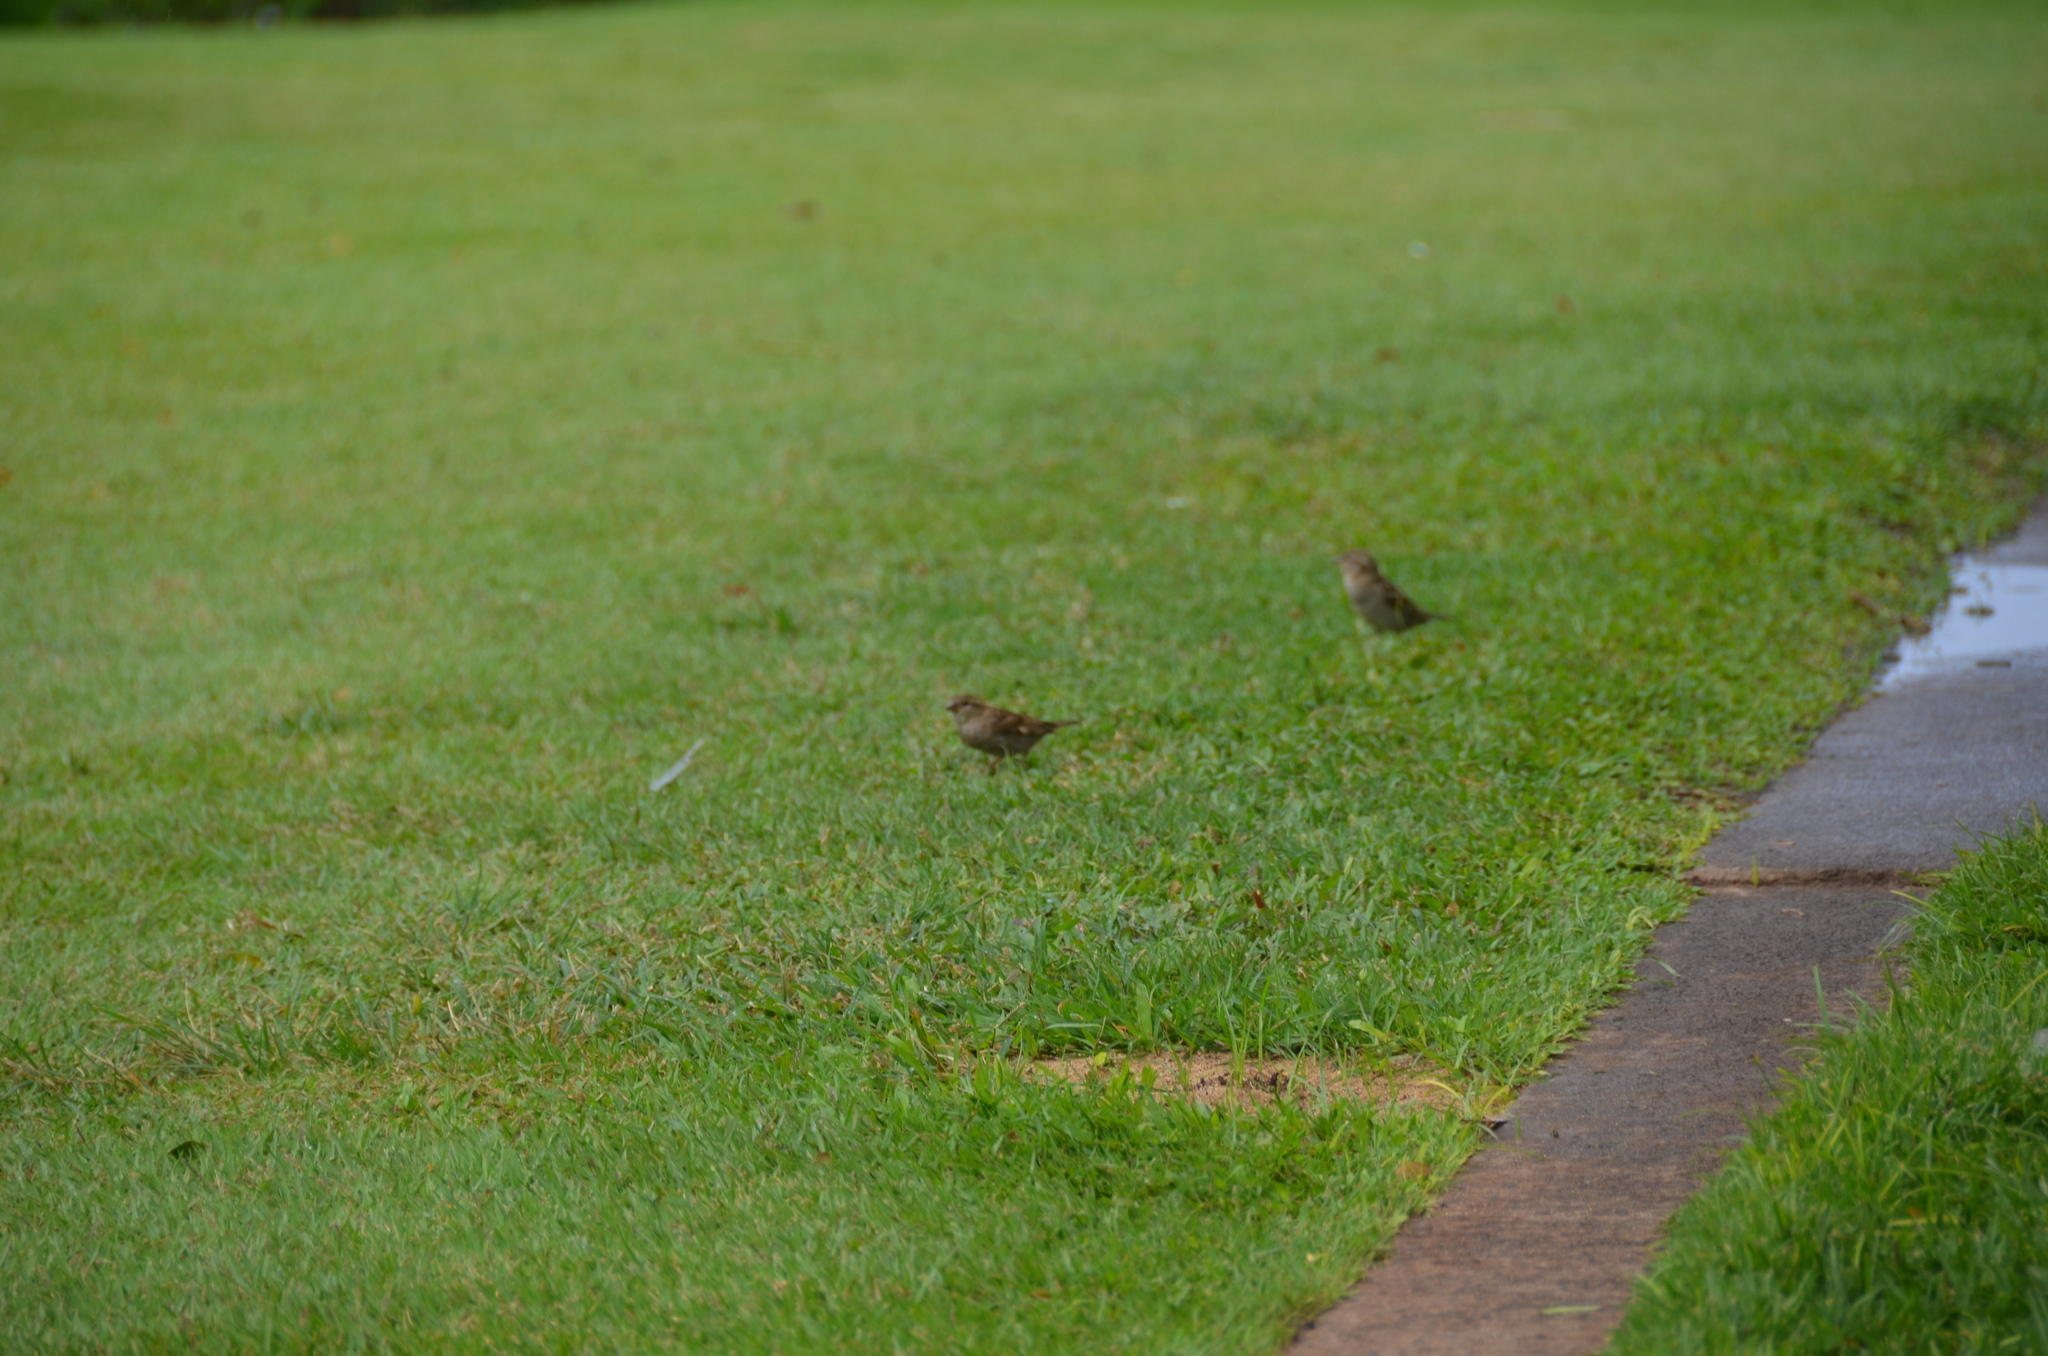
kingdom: Animalia
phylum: Chordata
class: Aves
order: Passeriformes
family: Passeridae
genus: Passer
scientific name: Passer domesticus
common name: House sparrow
